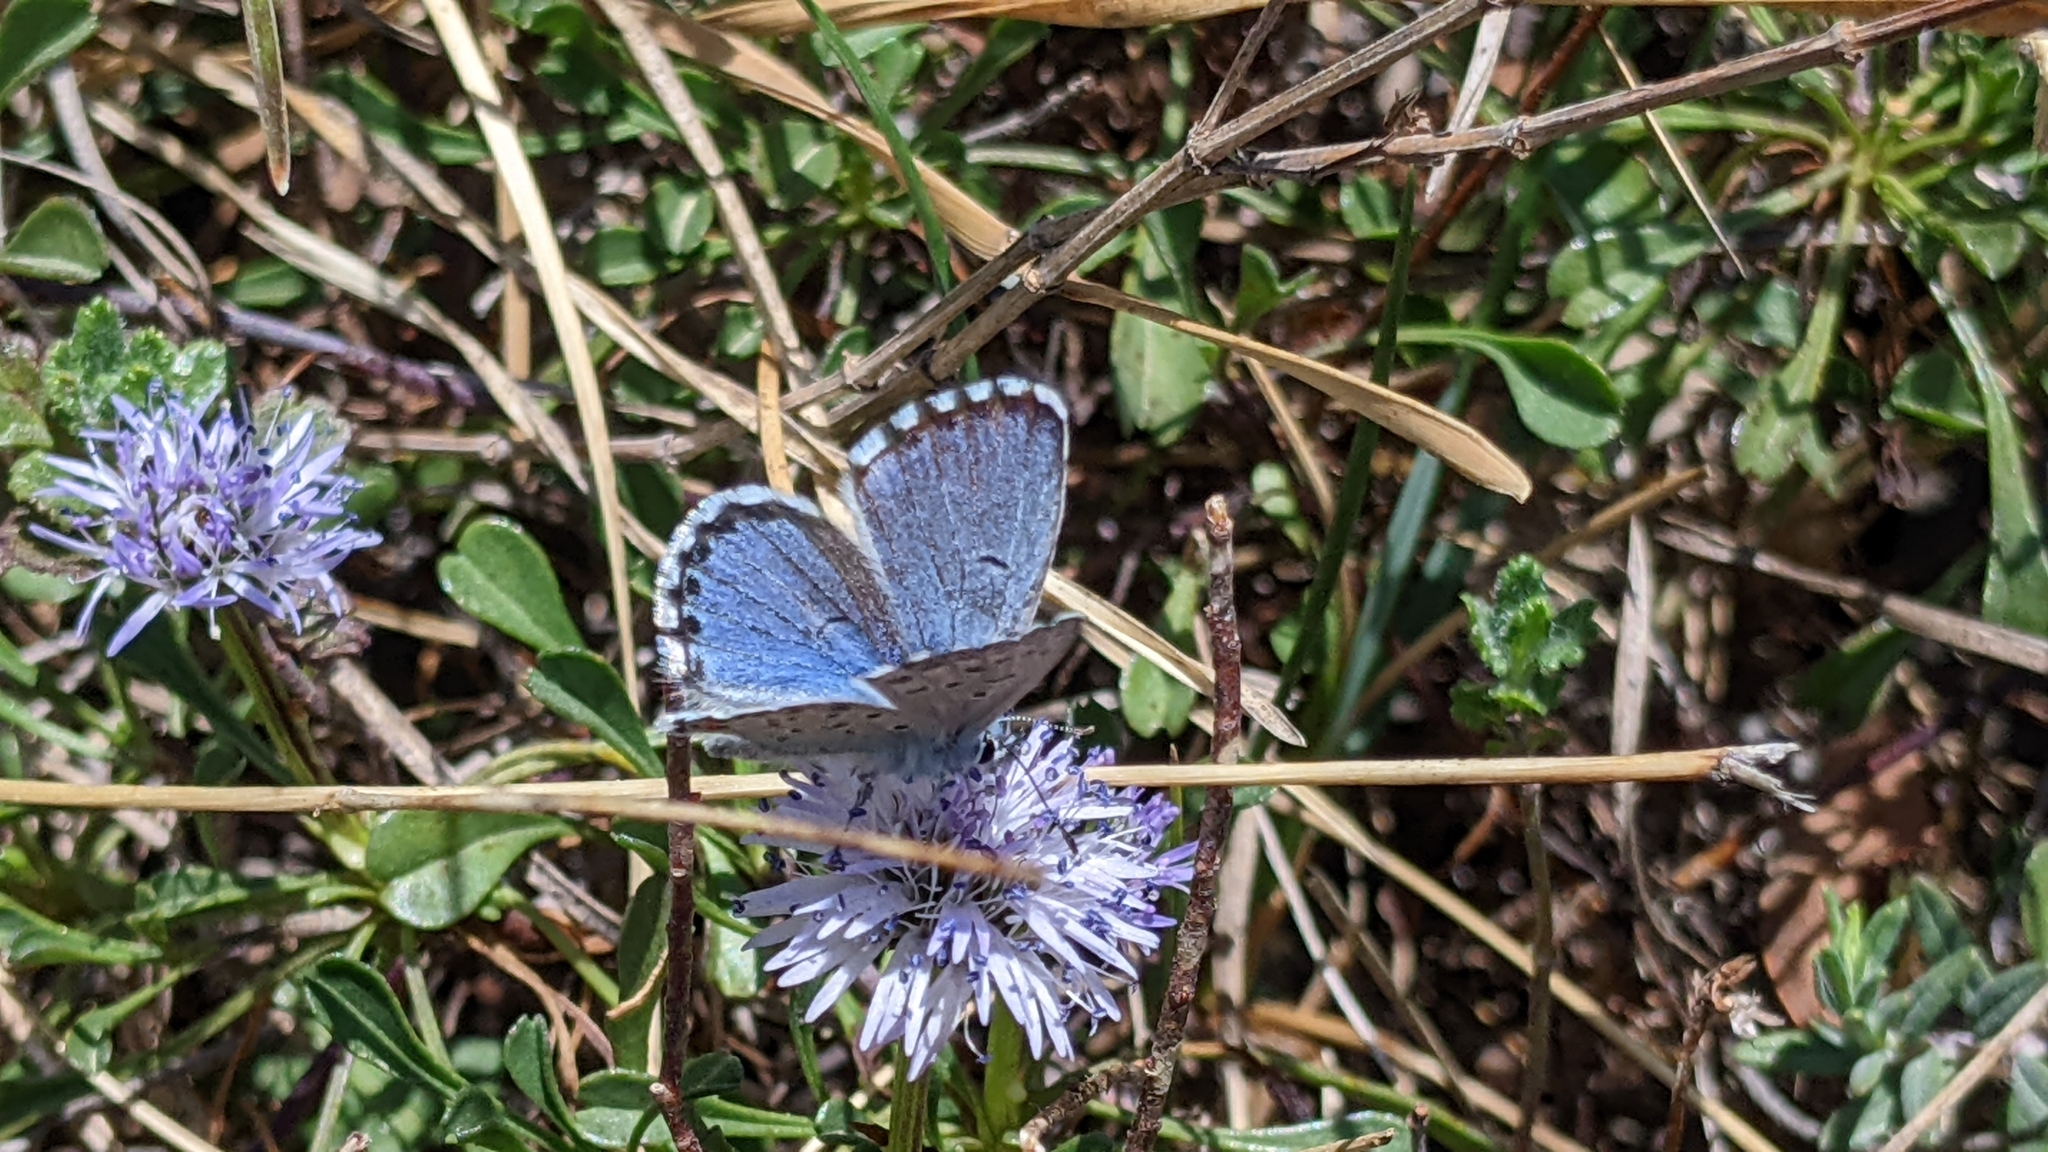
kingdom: Animalia
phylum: Arthropoda
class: Insecta
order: Lepidoptera
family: Lycaenidae
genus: Pseudophilotes
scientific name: Pseudophilotes baton
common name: Baton blue
